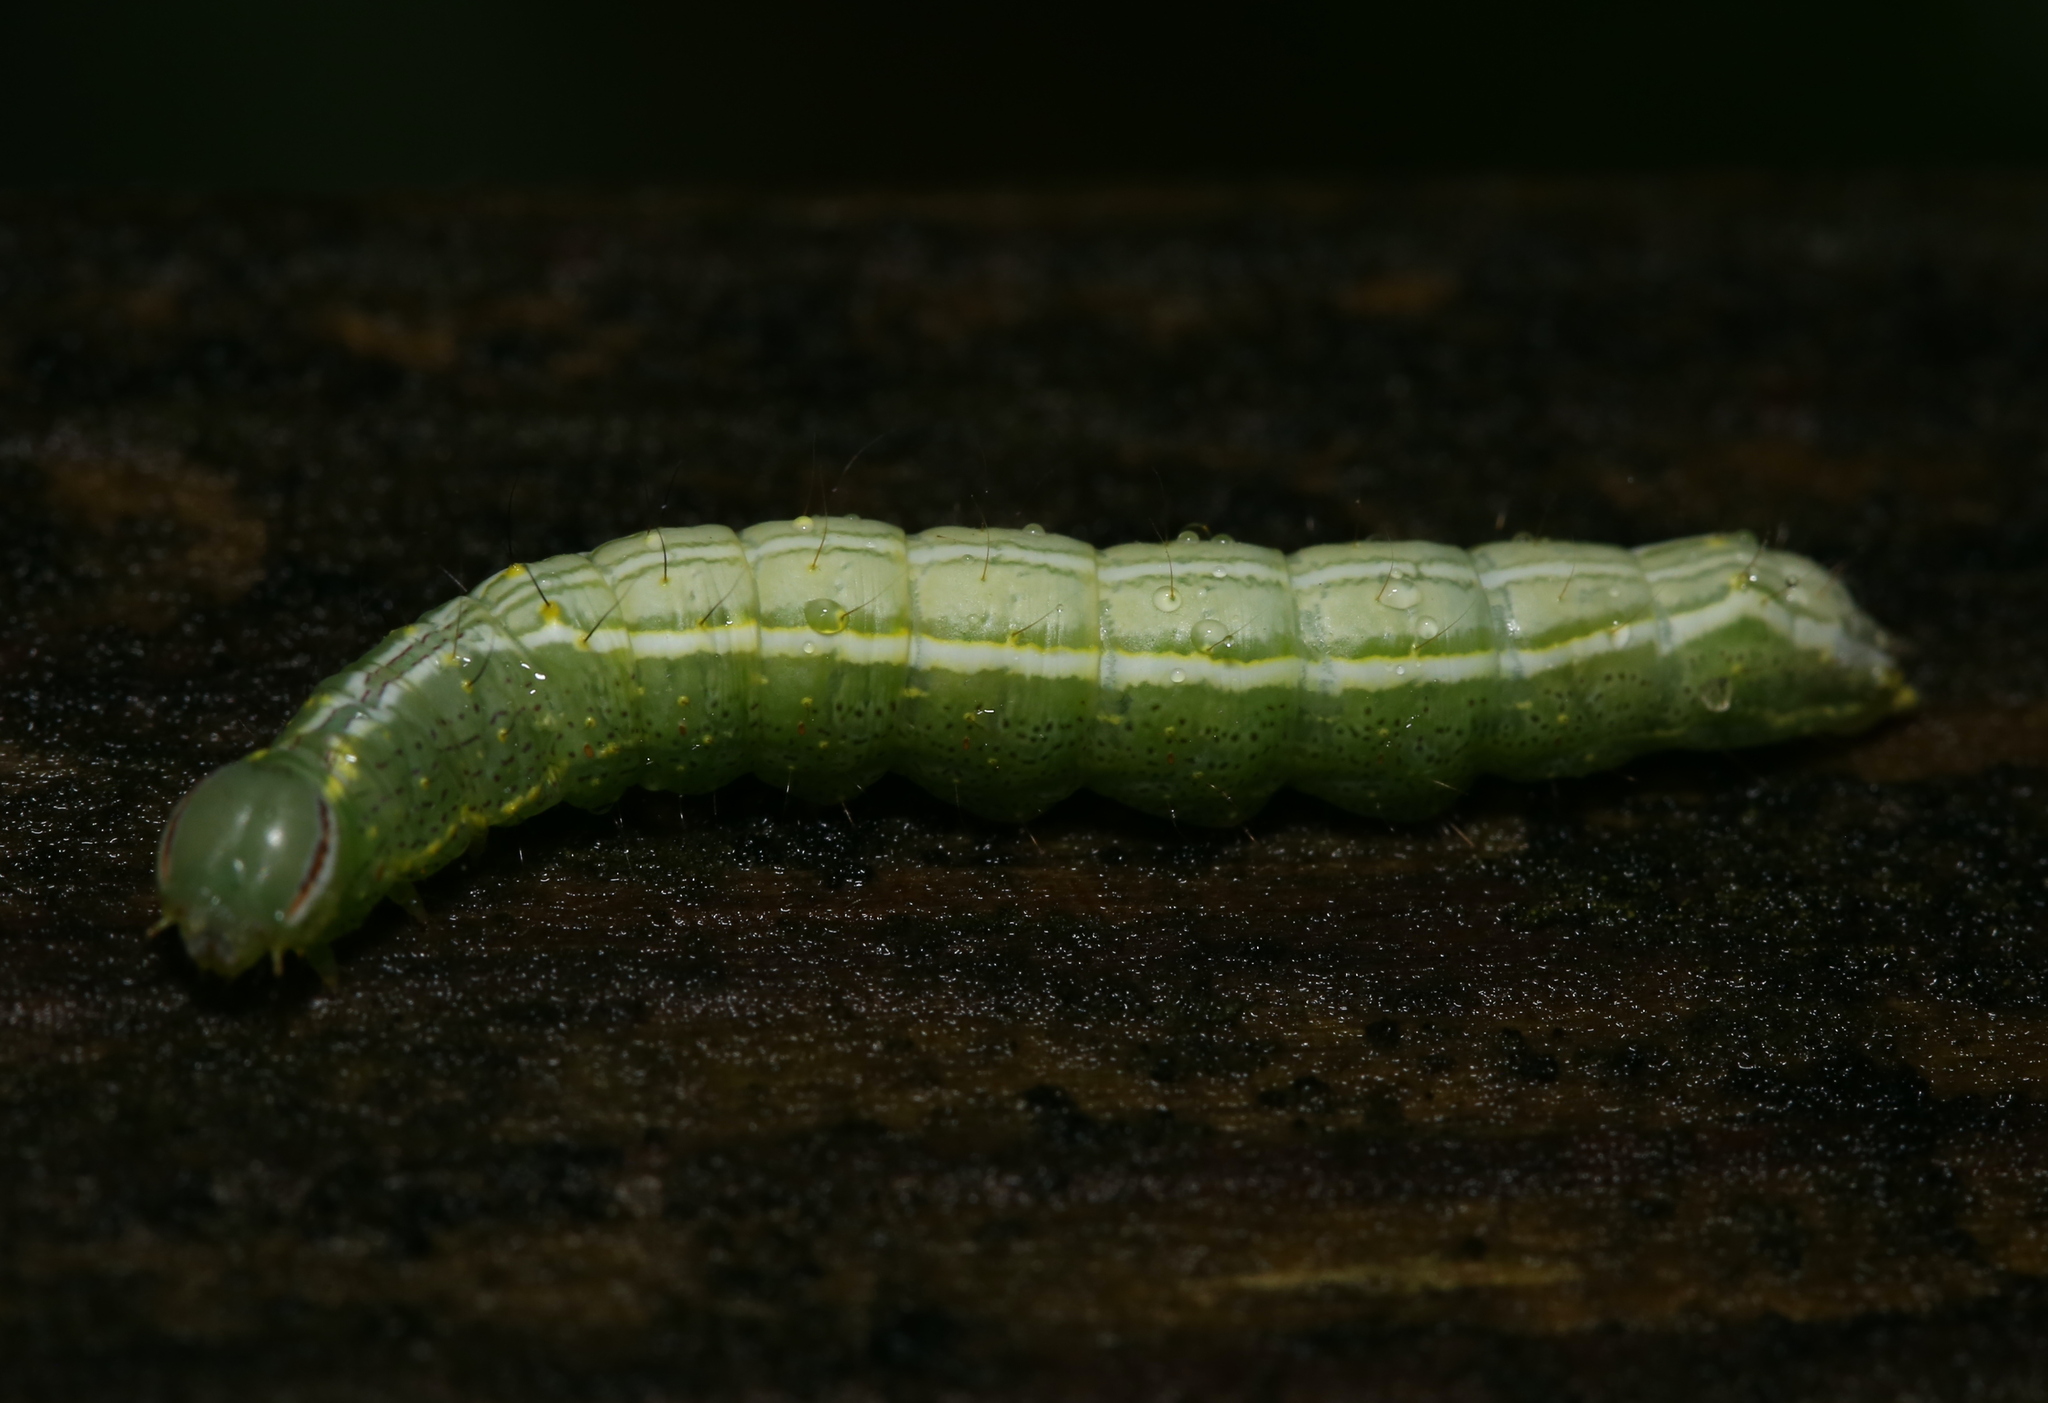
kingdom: Animalia
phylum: Arthropoda
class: Insecta
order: Lepidoptera
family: Notodontidae
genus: Lochmaeus
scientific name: Lochmaeus bilineata
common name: Double-lined prominent
